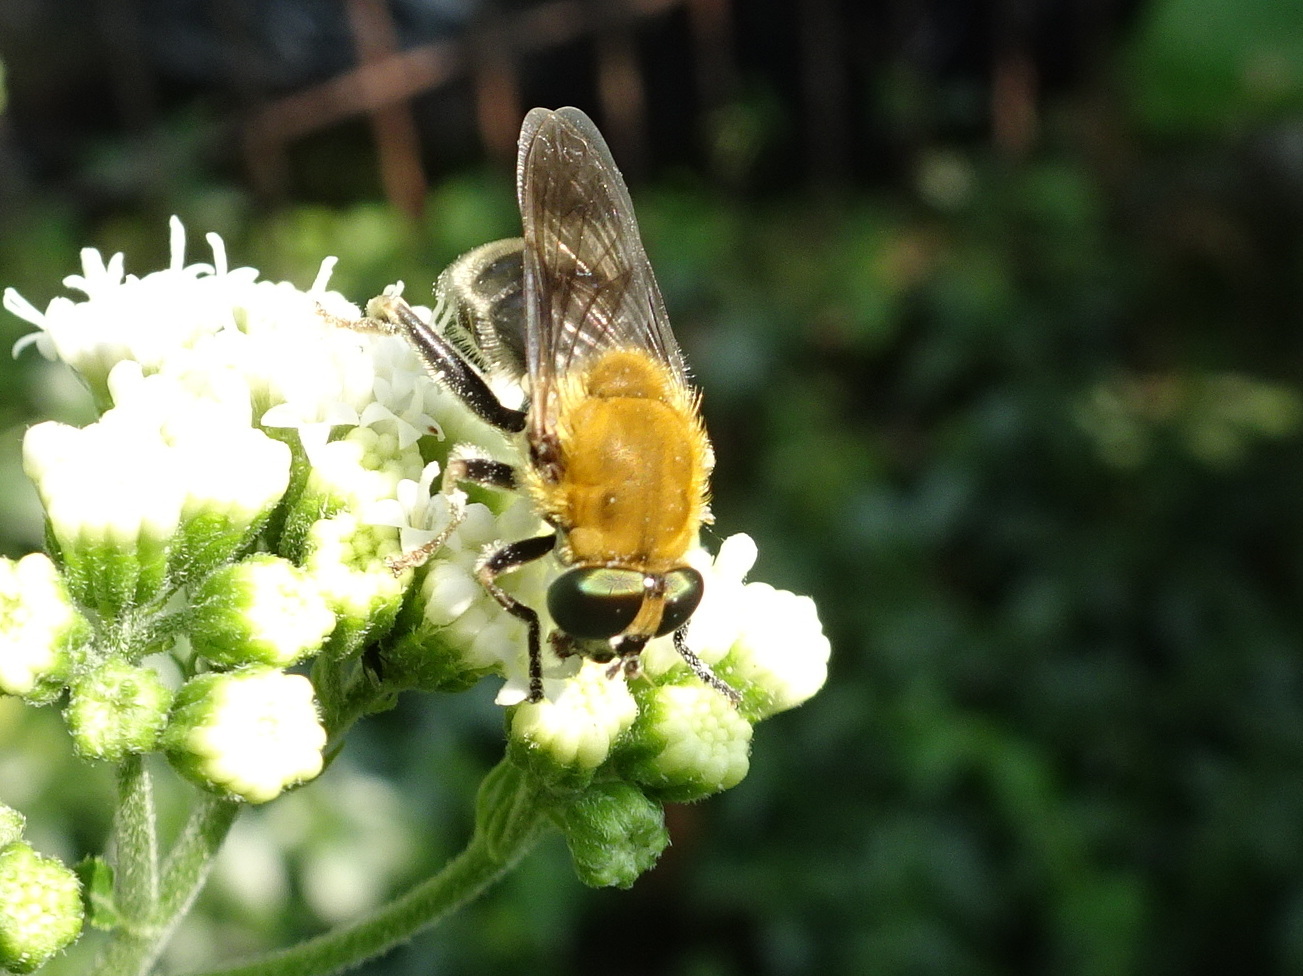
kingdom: Animalia
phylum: Arthropoda
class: Insecta
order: Diptera
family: Syrphidae
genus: Pterallastes
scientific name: Pterallastes thoracicus
